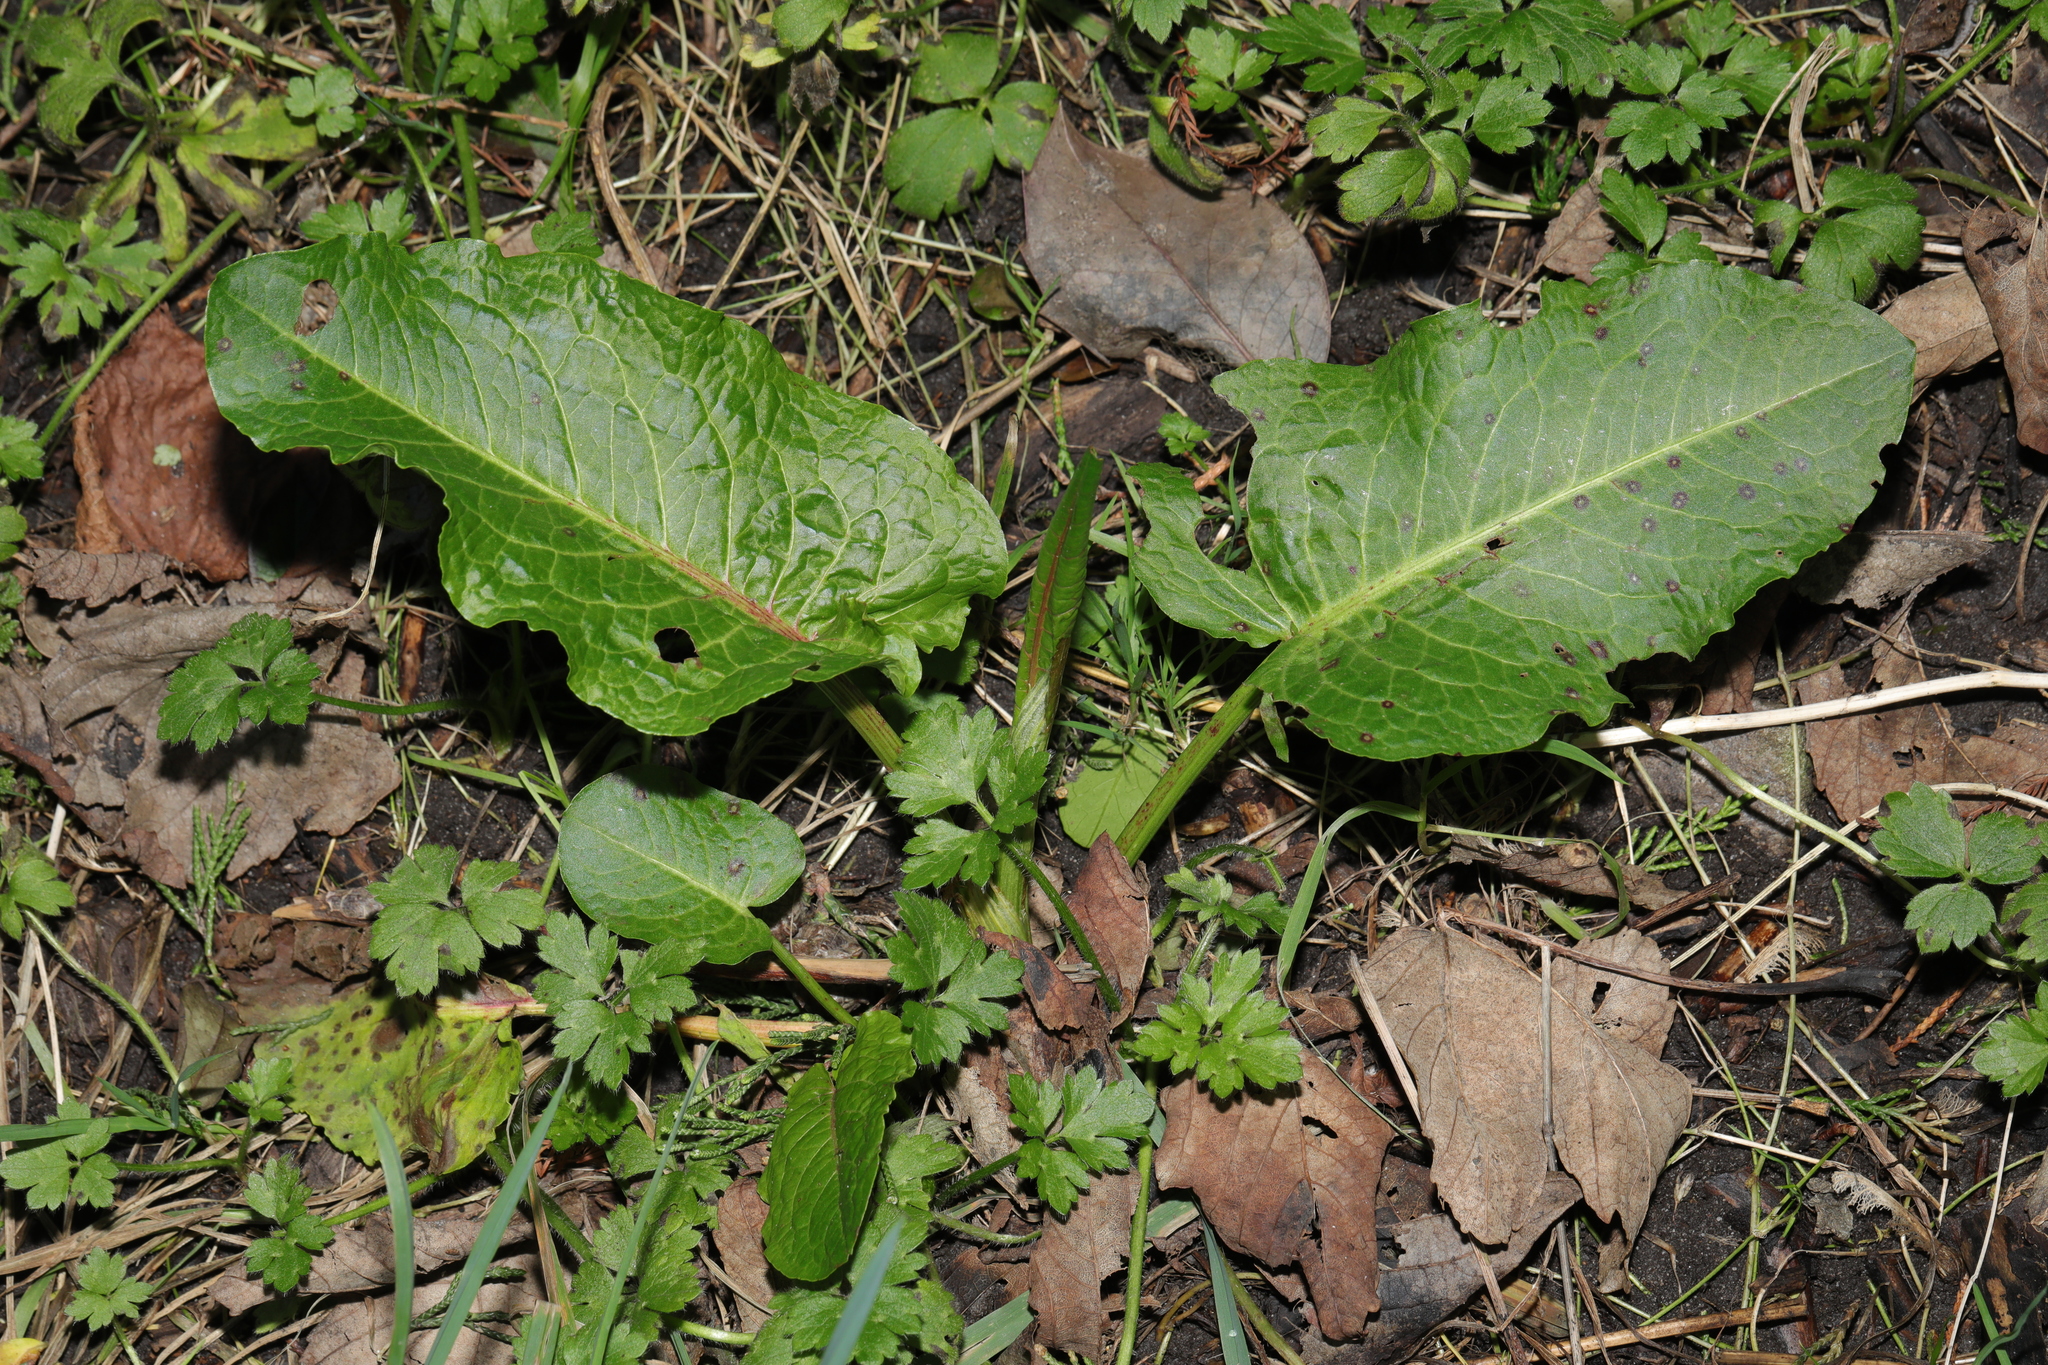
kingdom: Plantae
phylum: Tracheophyta
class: Magnoliopsida
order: Caryophyllales
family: Polygonaceae
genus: Rumex
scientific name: Rumex obtusifolius
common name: Bitter dock
